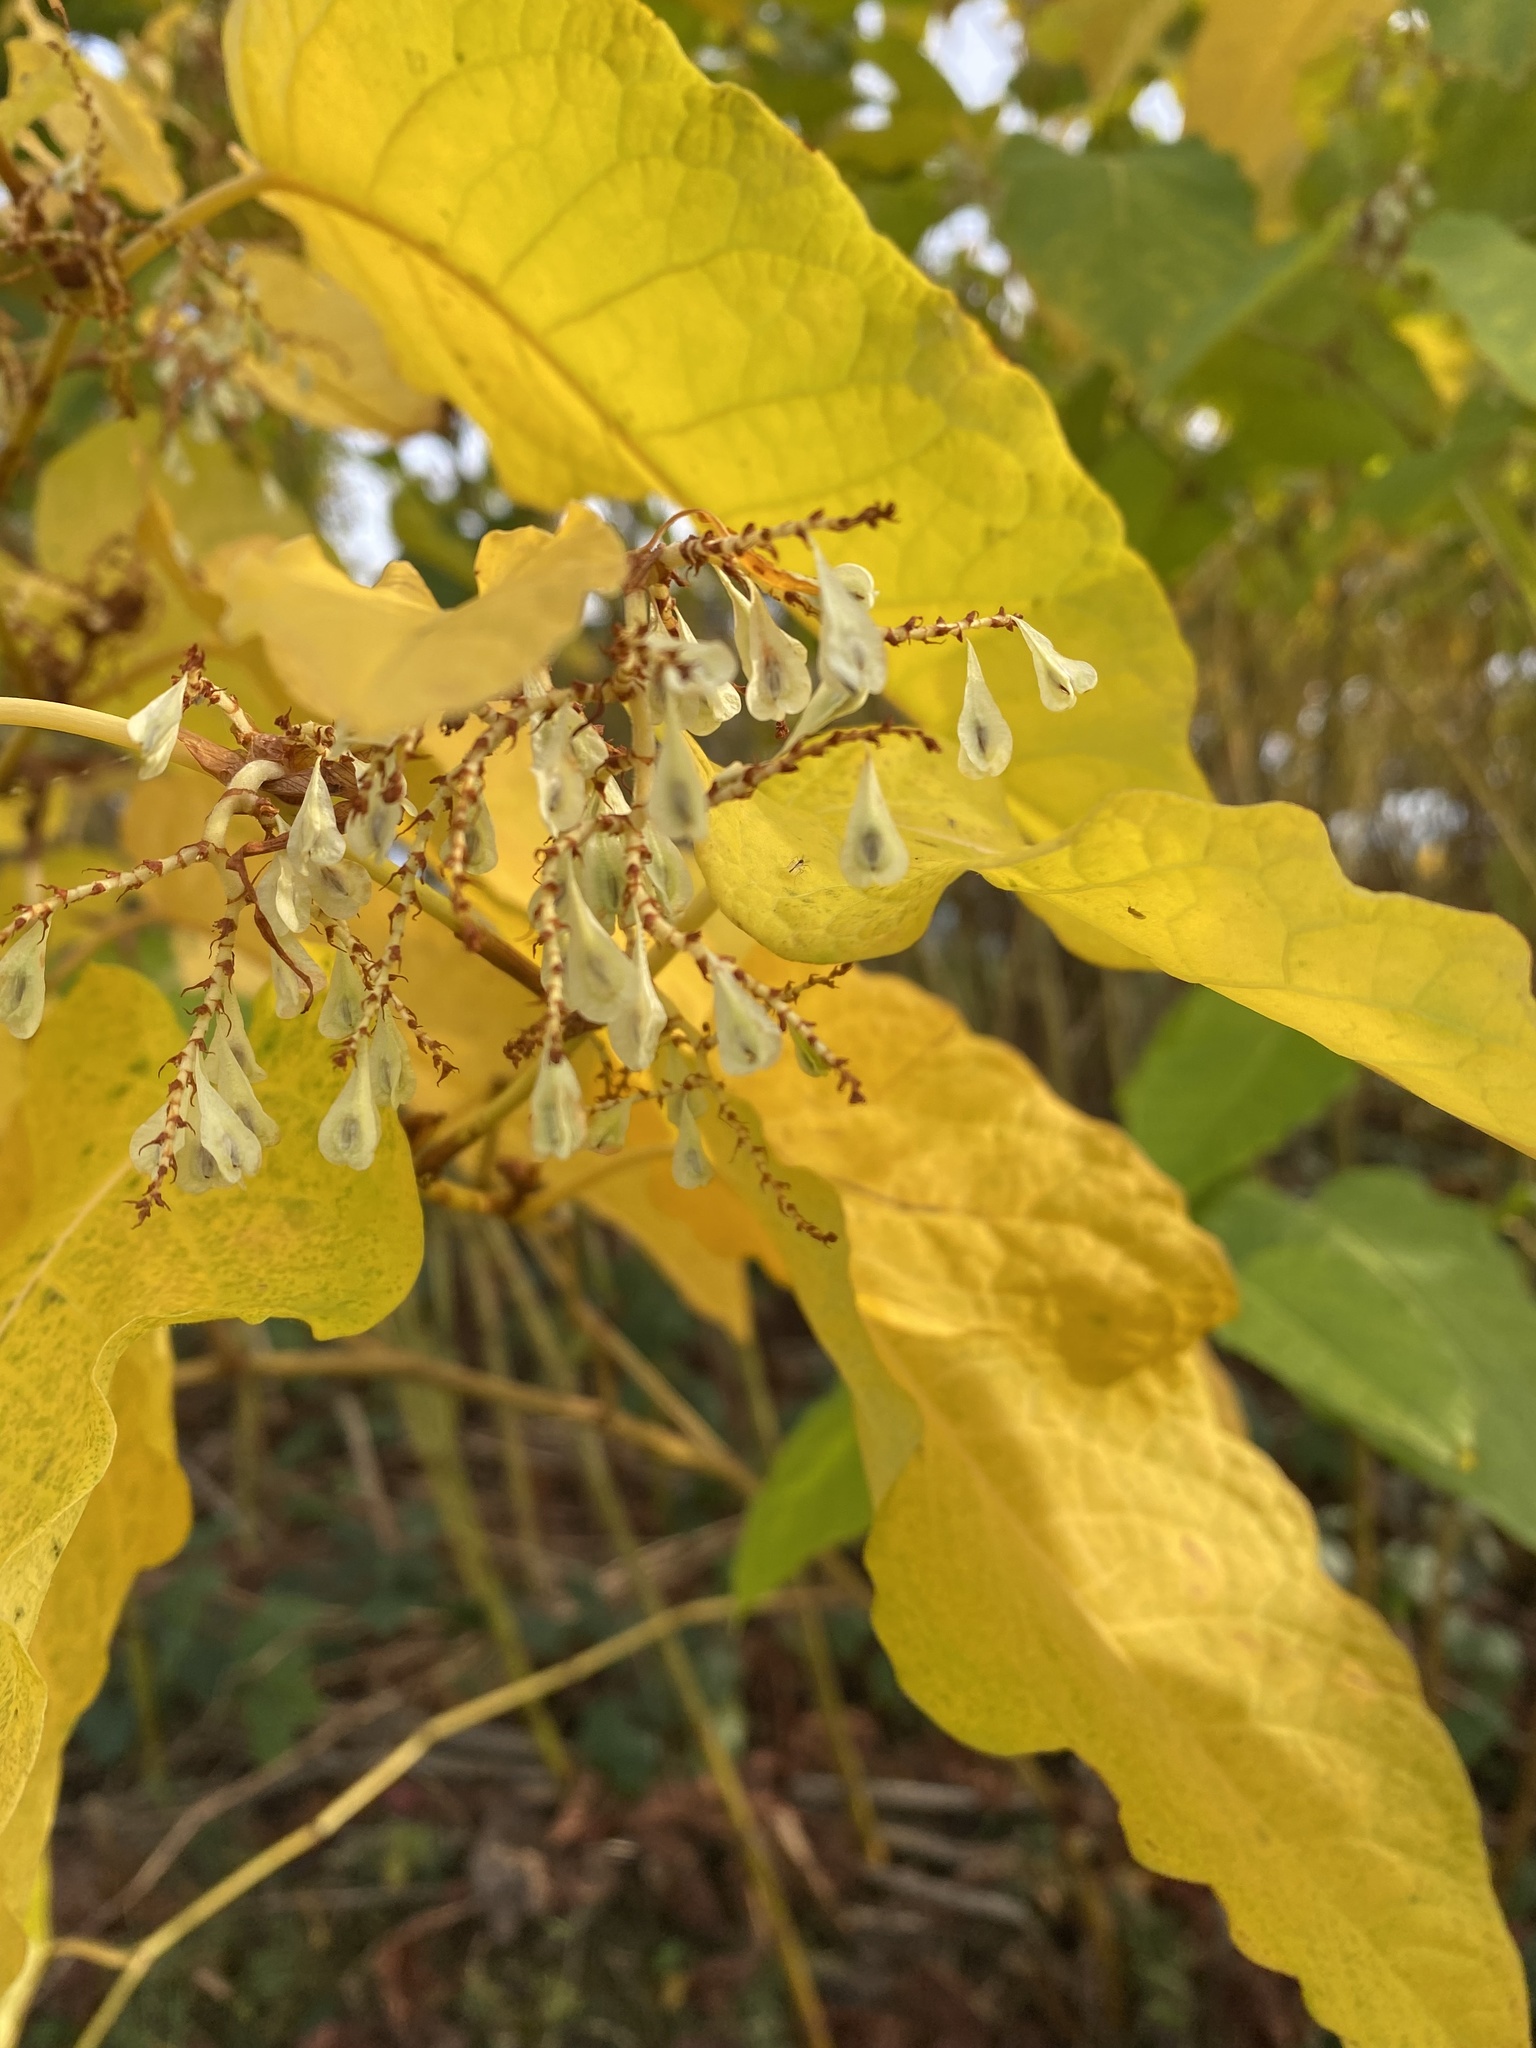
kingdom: Plantae
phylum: Tracheophyta
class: Magnoliopsida
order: Caryophyllales
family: Polygonaceae
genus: Reynoutria
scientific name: Reynoutria sachalinensis
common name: Giant knotweed
